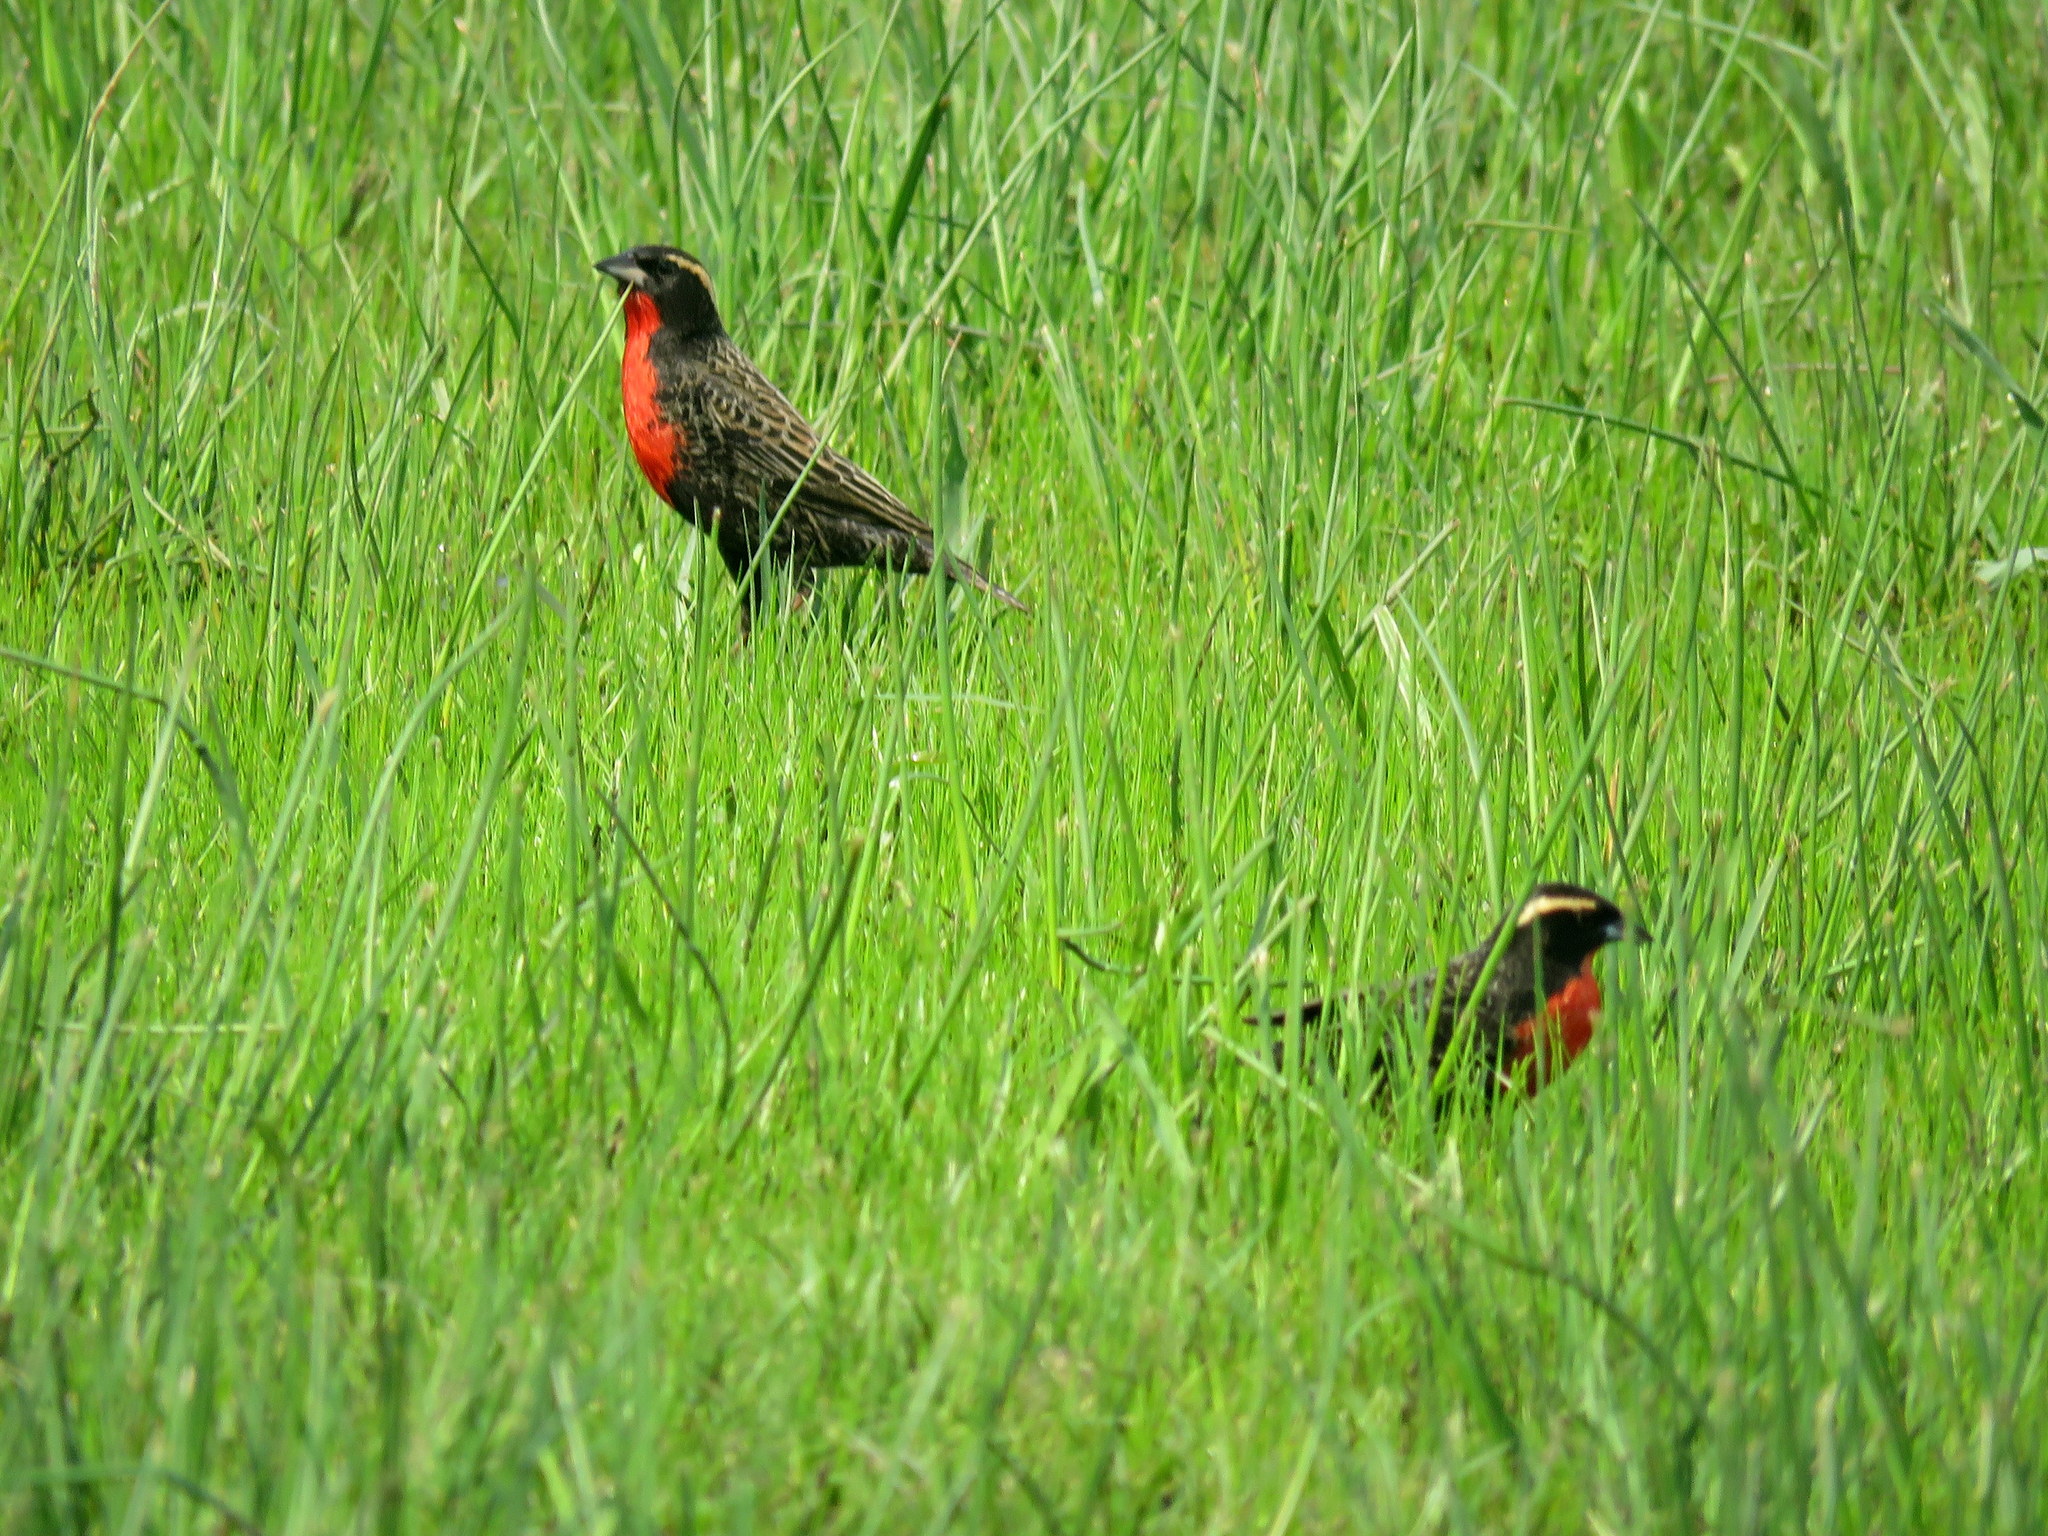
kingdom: Animalia
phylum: Chordata
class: Aves
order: Passeriformes
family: Icteridae
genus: Sturnella
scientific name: Sturnella superciliaris
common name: White-browed blackbird
